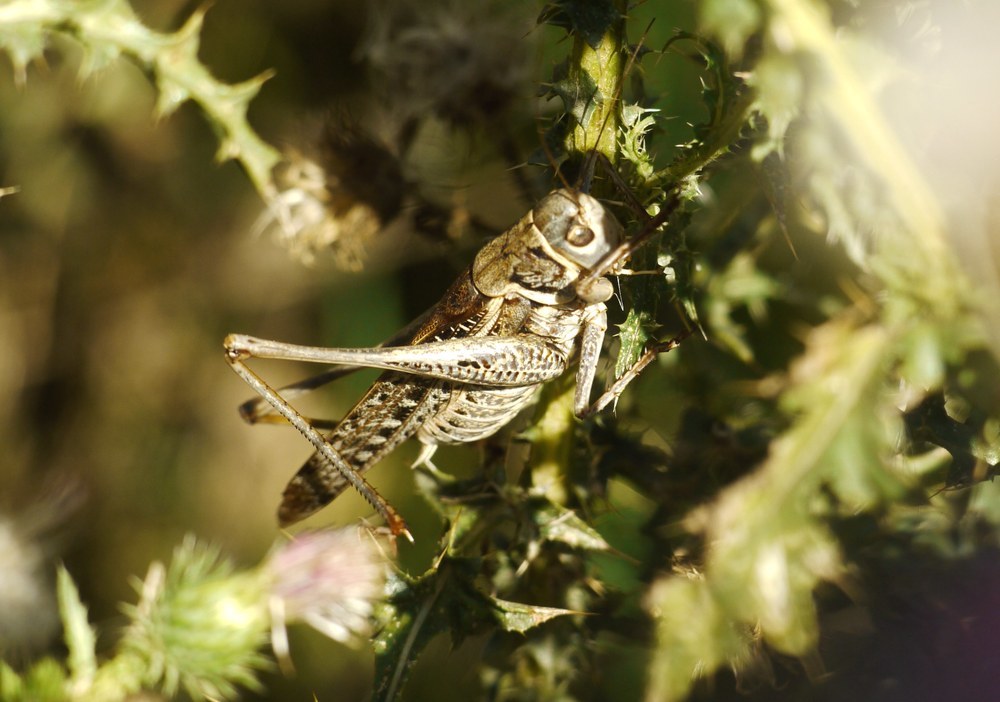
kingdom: Animalia
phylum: Arthropoda
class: Insecta
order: Orthoptera
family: Tettigoniidae
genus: Decticus
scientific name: Decticus albifrons
